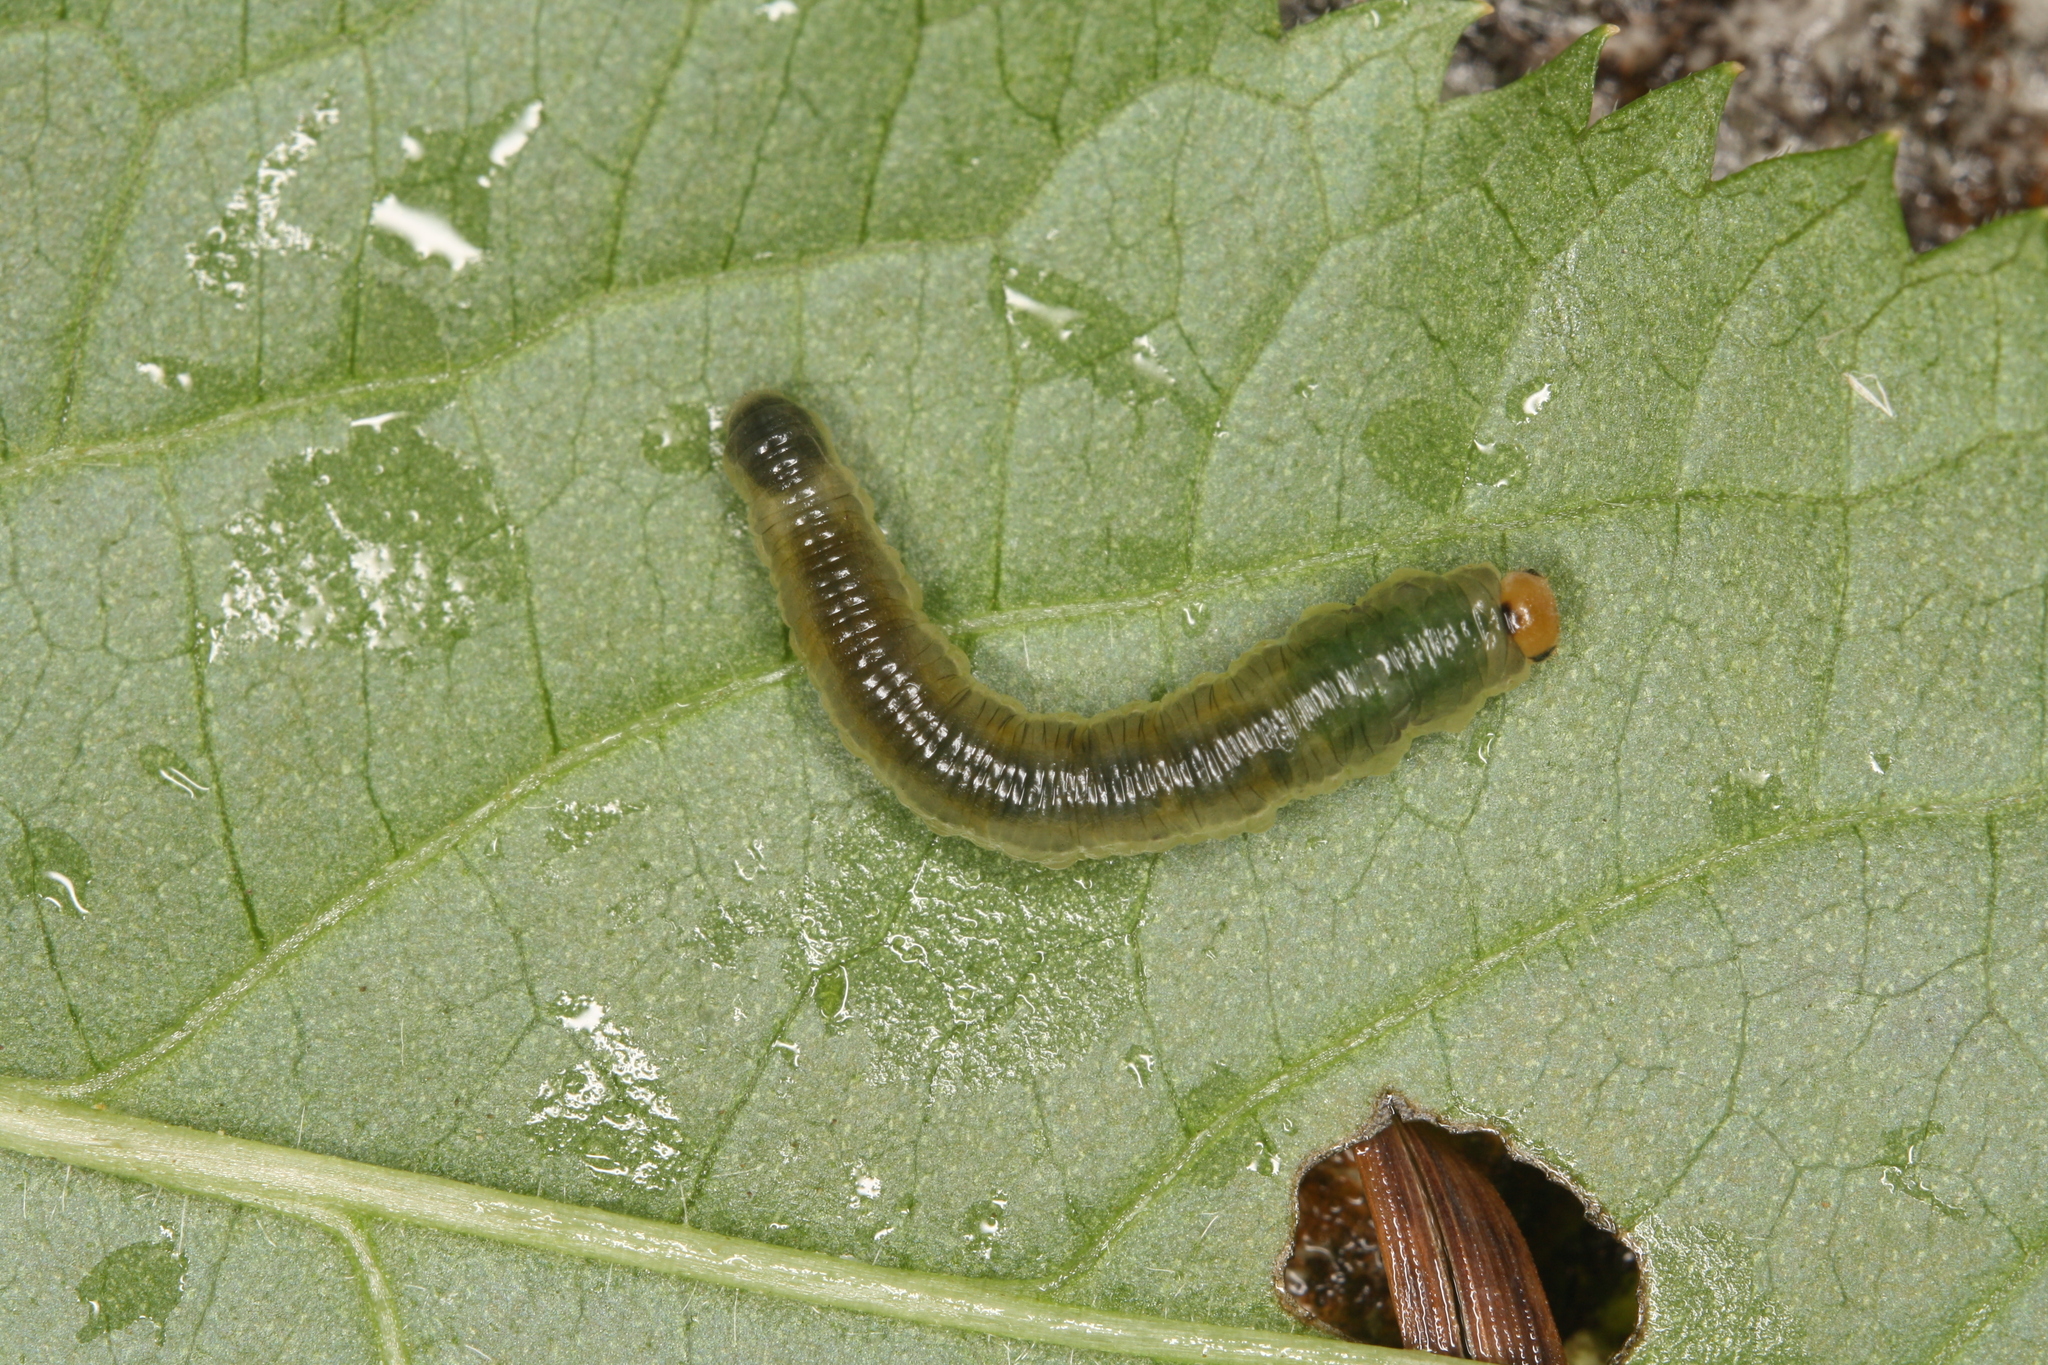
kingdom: Animalia
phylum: Arthropoda
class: Insecta
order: Hymenoptera
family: Tenthredinidae
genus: Macrophya
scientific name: Macrophya ribis
